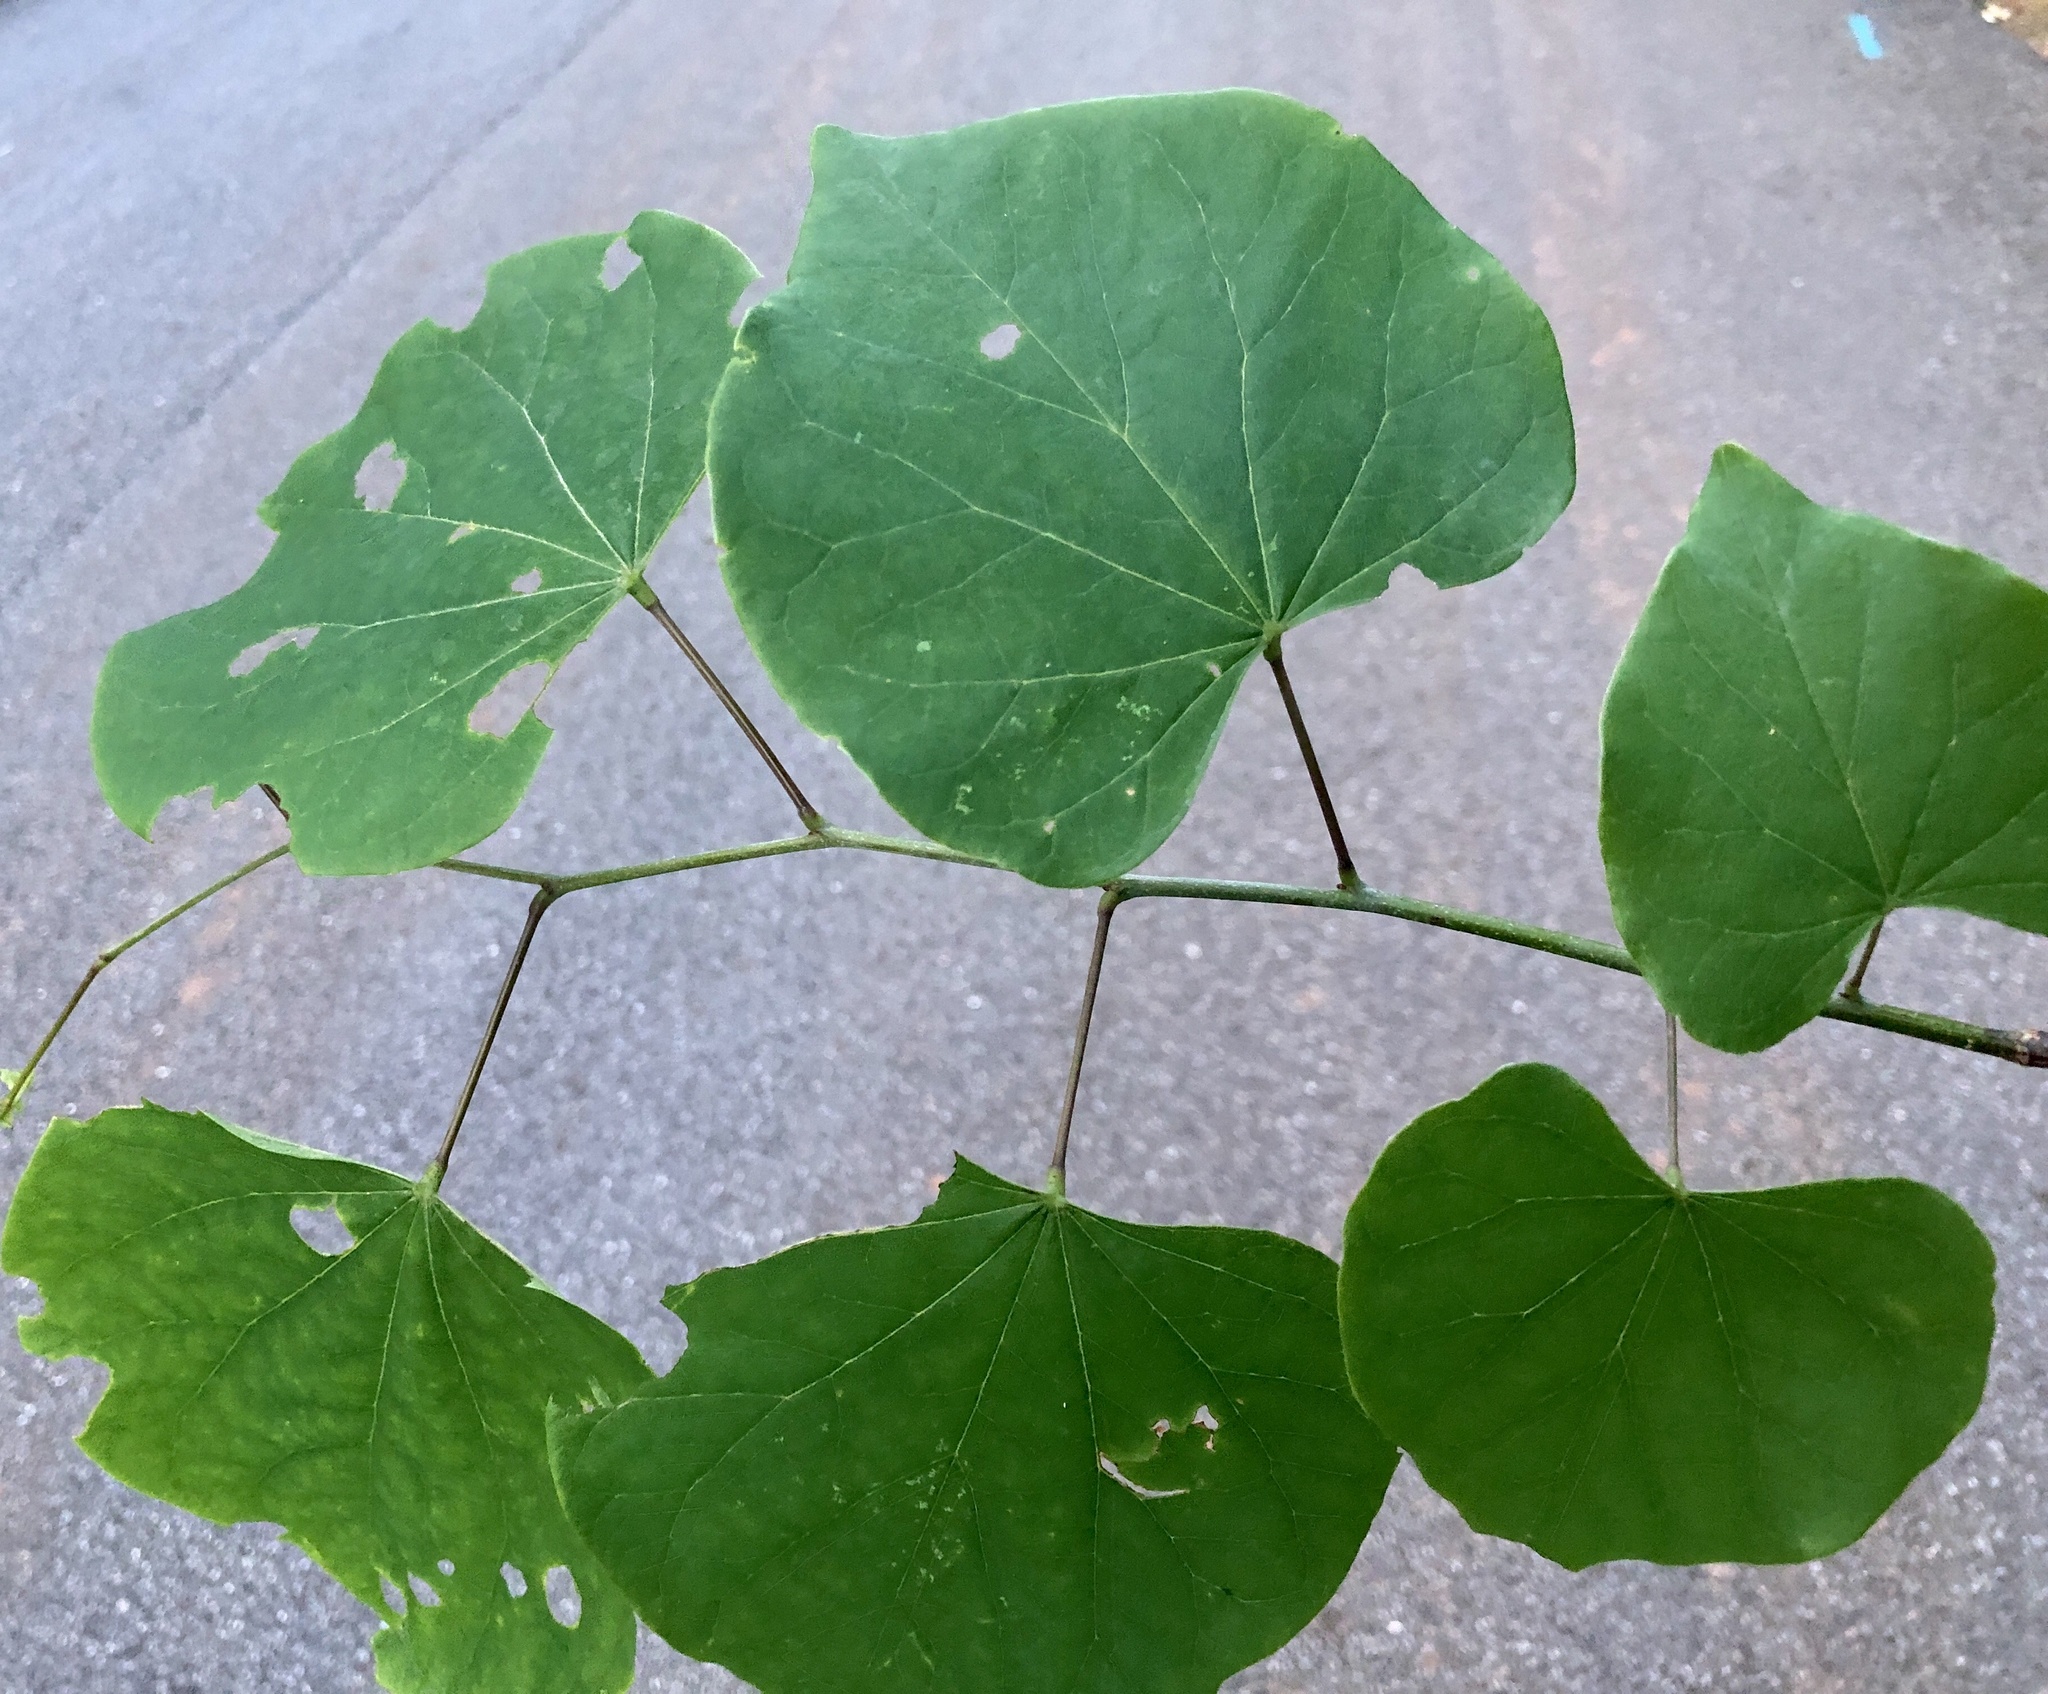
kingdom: Plantae
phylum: Tracheophyta
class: Magnoliopsida
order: Fabales
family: Fabaceae
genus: Cercis
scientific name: Cercis canadensis
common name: Eastern redbud
